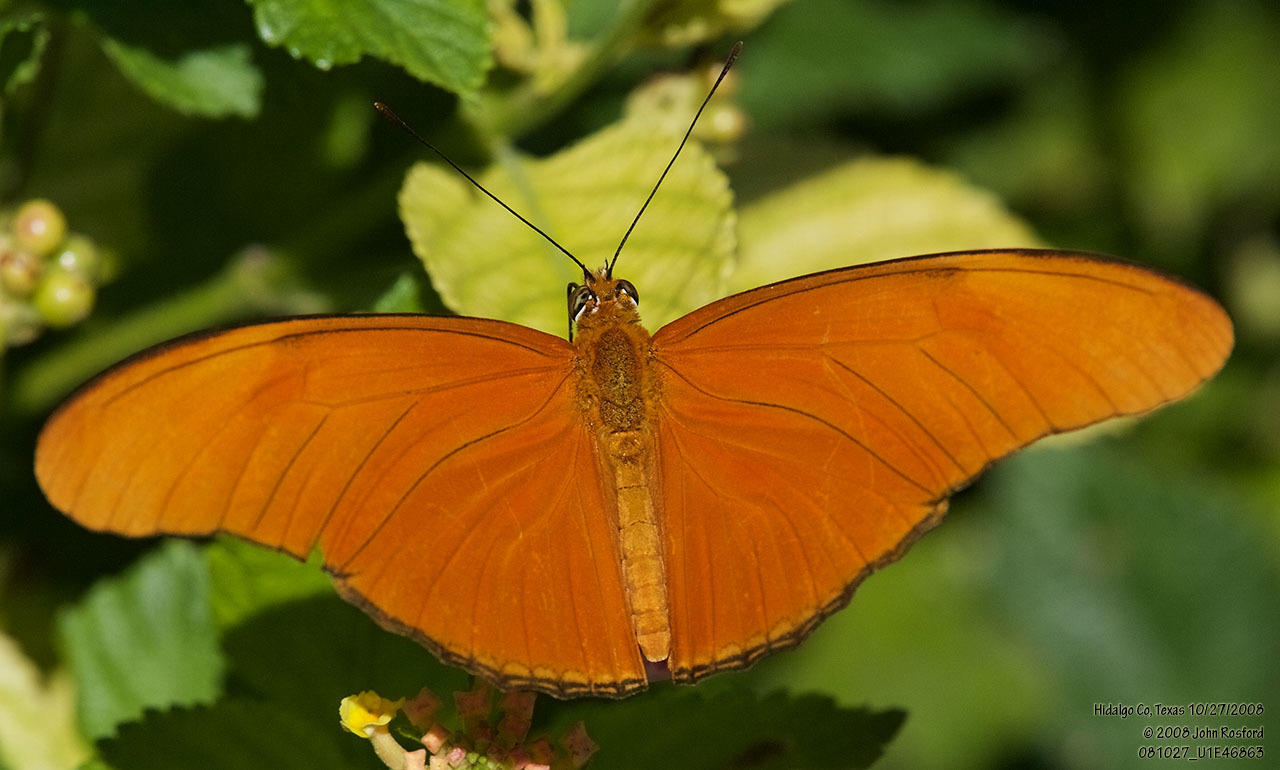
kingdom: Animalia
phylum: Arthropoda
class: Insecta
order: Lepidoptera
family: Nymphalidae
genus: Dryas
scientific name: Dryas iulia
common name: Flambeau
